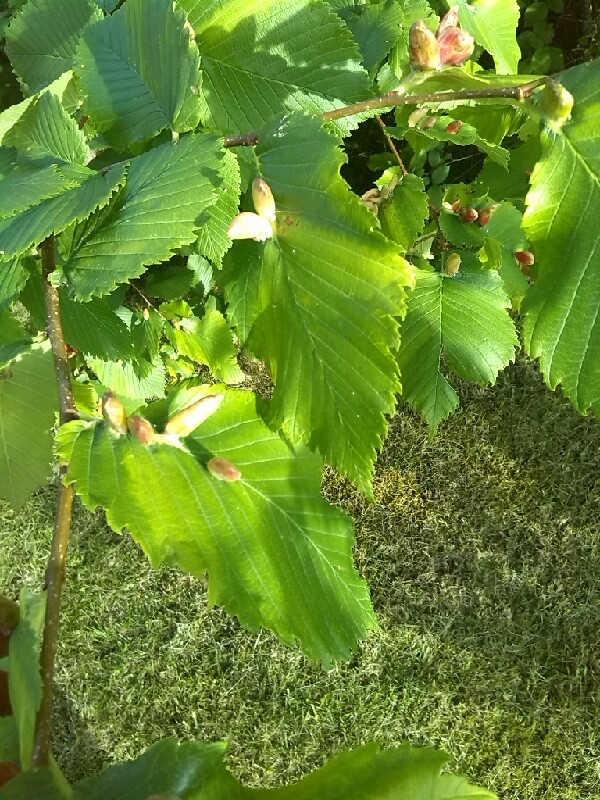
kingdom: Plantae
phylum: Tracheophyta
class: Magnoliopsida
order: Rosales
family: Ulmaceae
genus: Ulmus
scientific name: Ulmus laevis
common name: European white-elm
